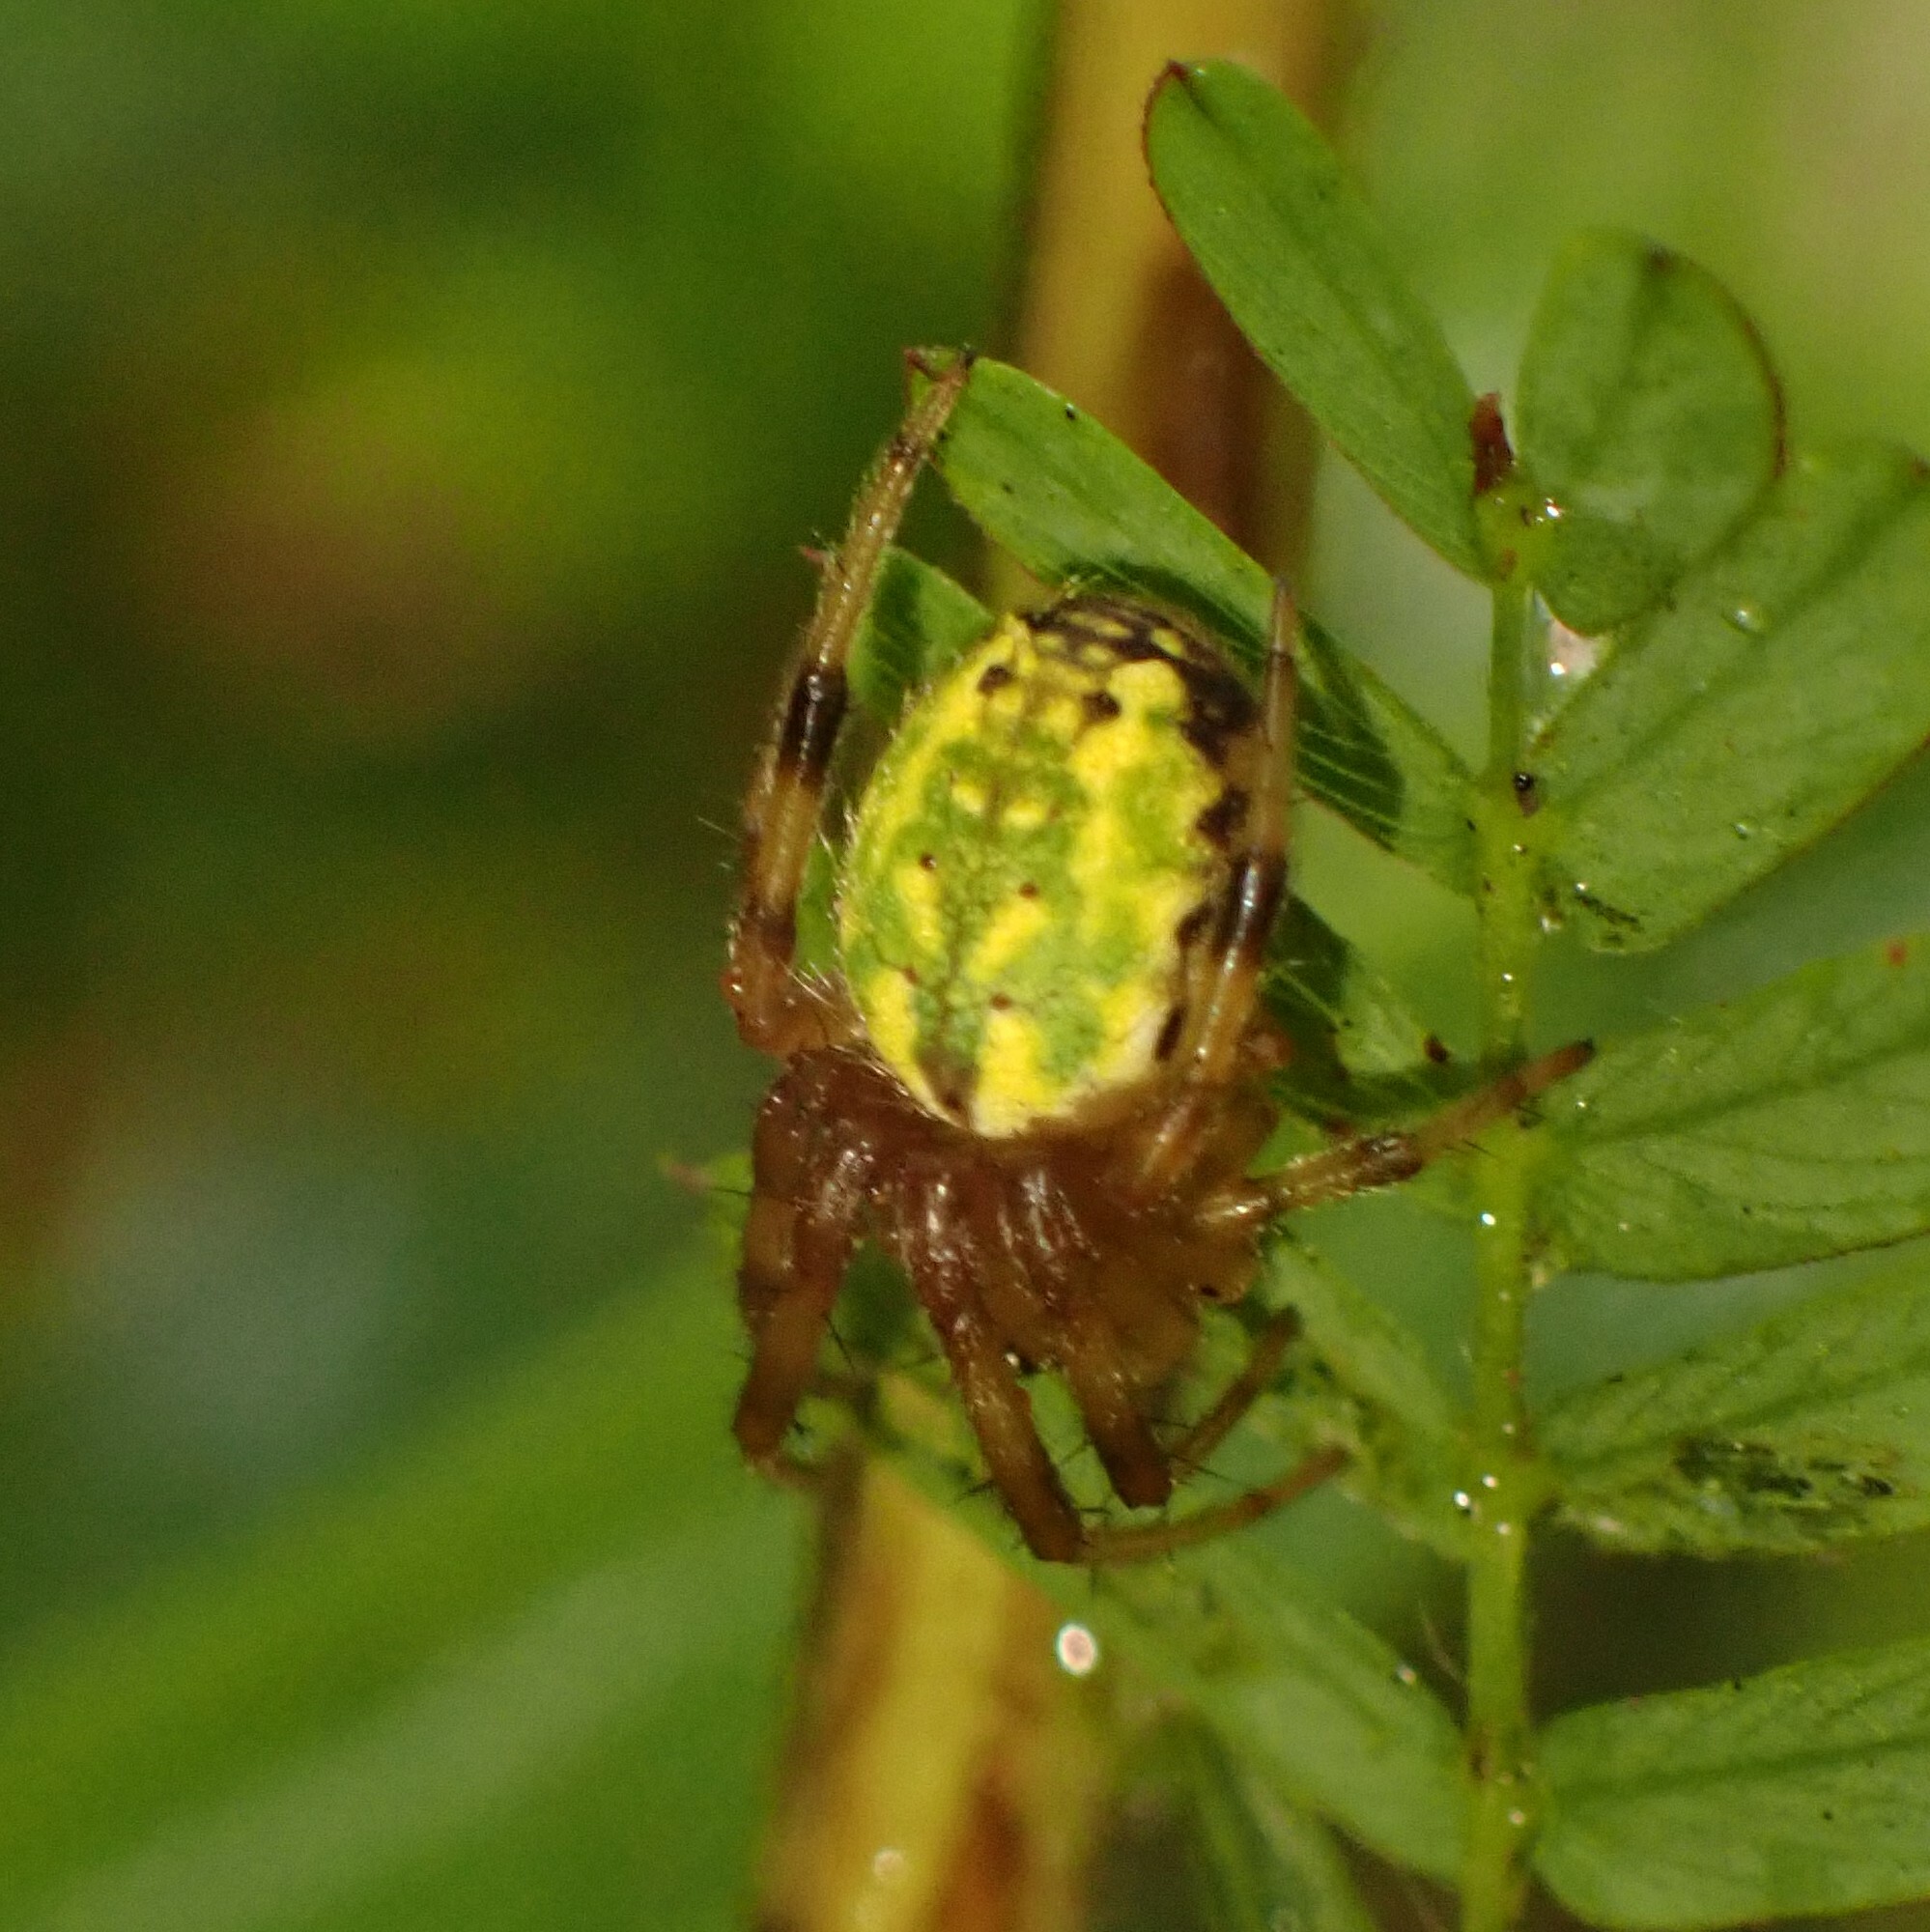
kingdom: Animalia
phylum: Arthropoda
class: Arachnida
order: Araneae
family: Araneidae
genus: Araneus
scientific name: Araneus guttatus
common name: Orb weavers
